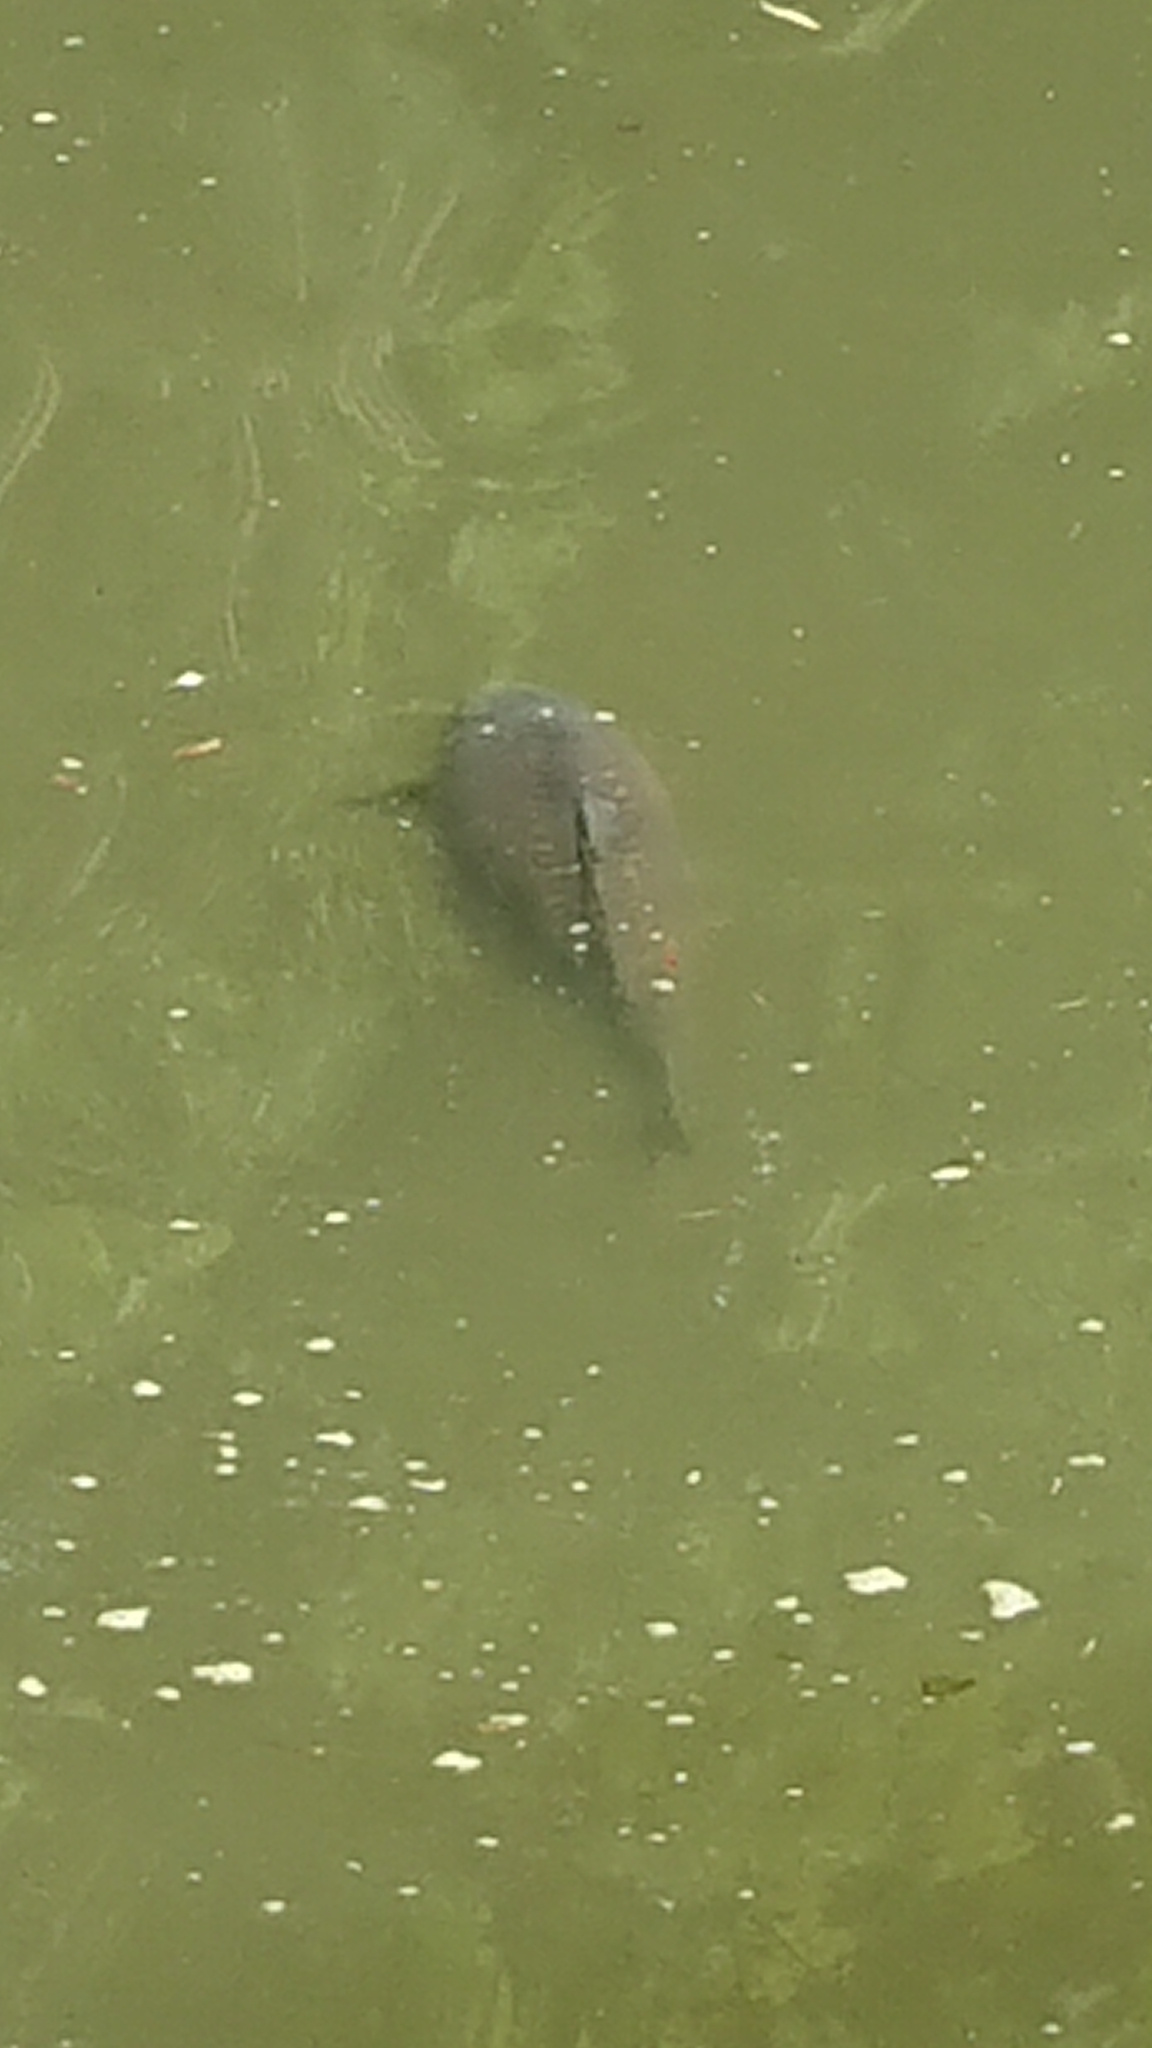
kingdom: Animalia
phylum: Chordata
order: Cypriniformes
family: Cyprinidae
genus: Cyprinus
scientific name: Cyprinus carpio
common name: Common carp
